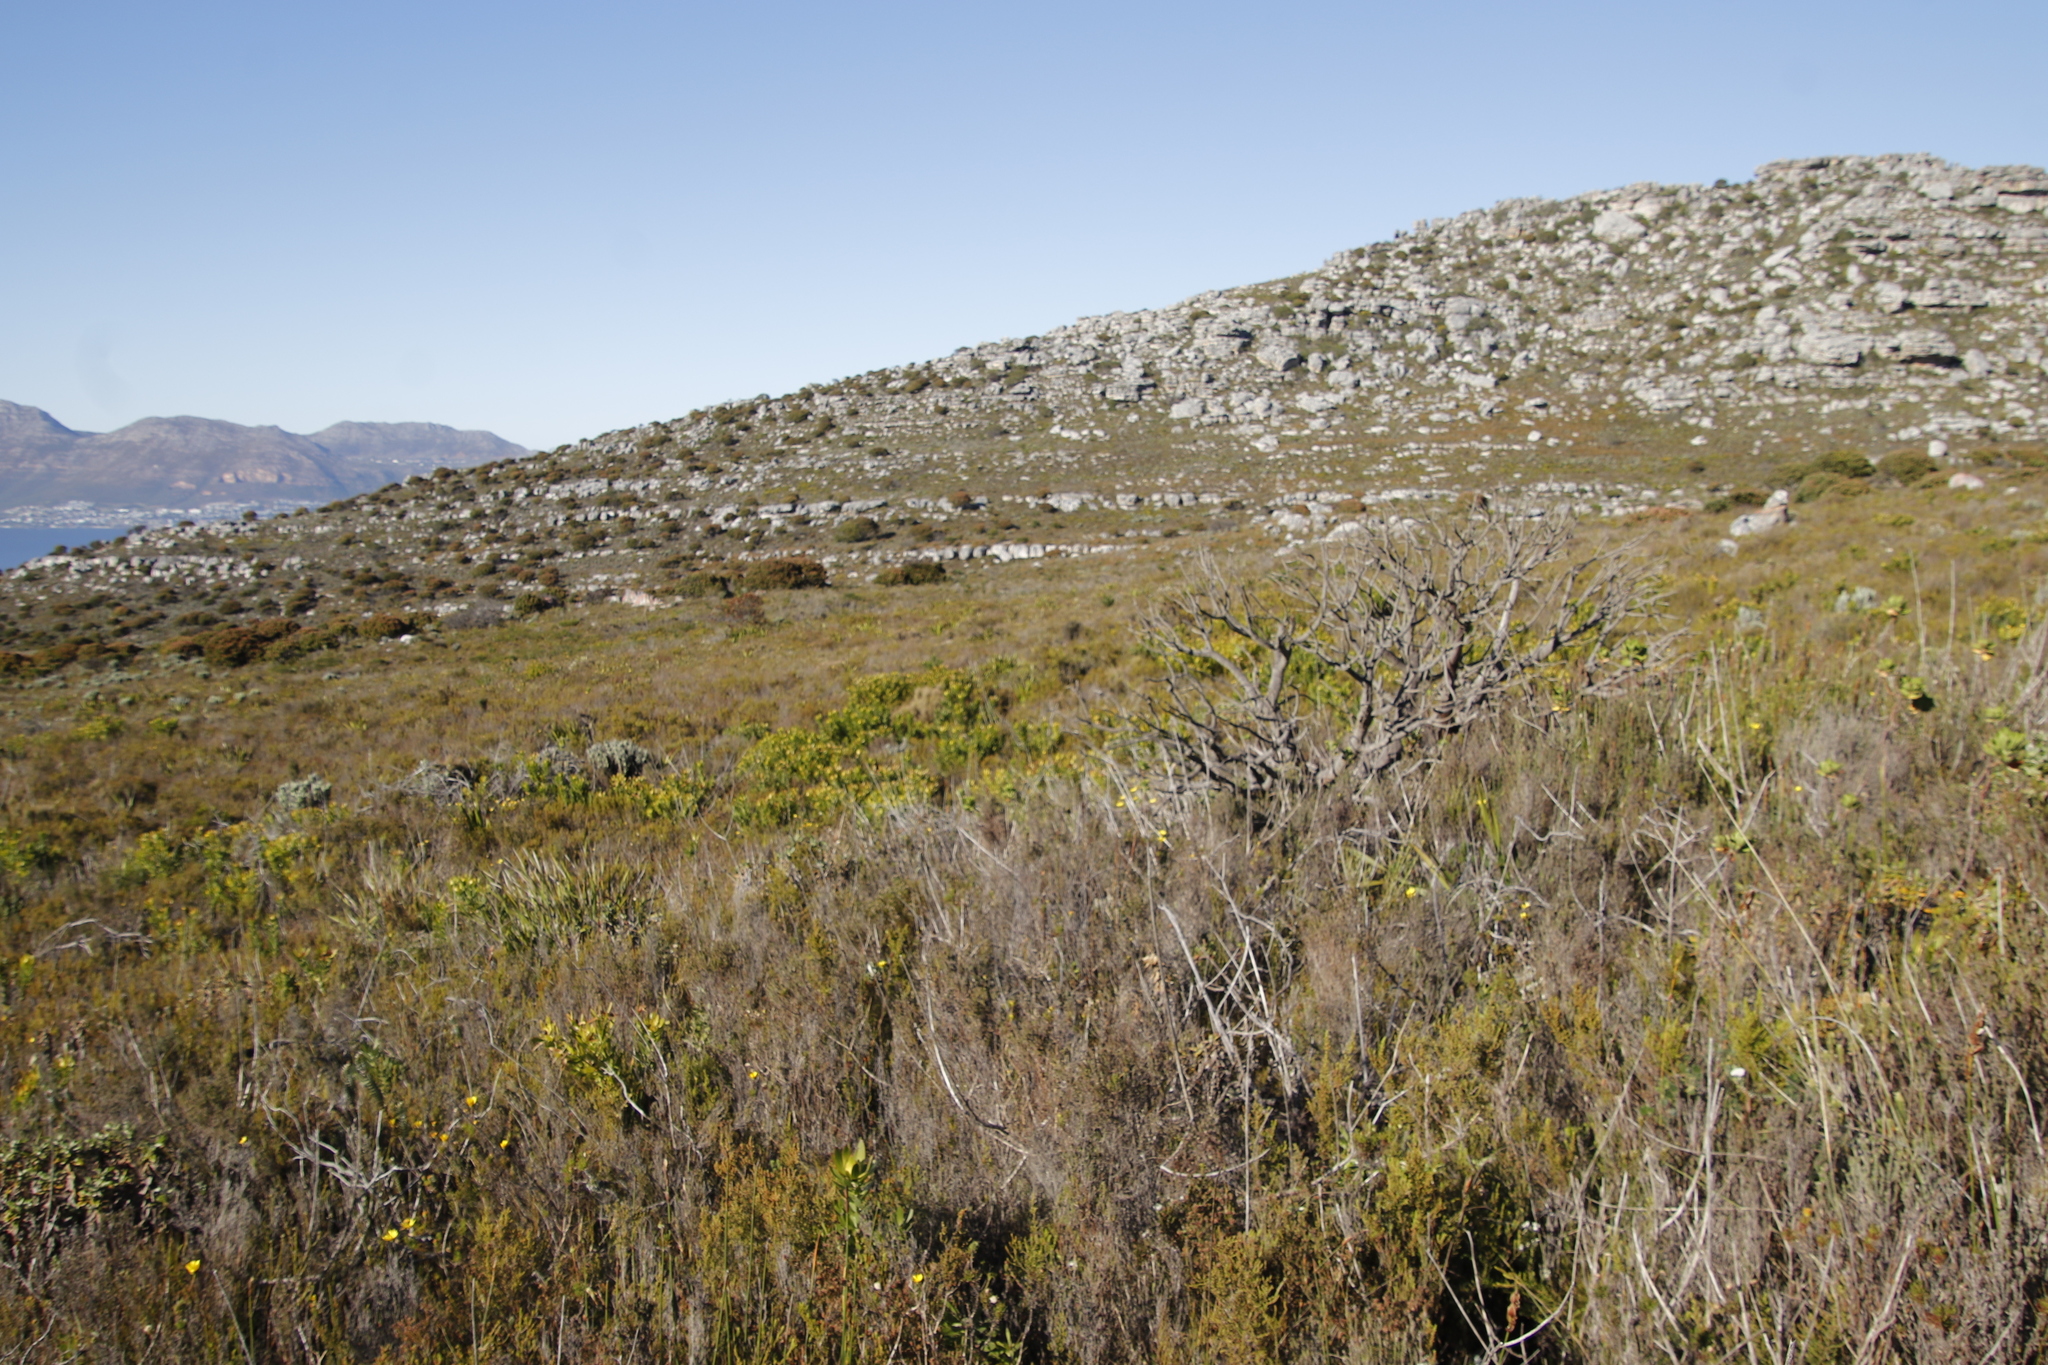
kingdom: Plantae
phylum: Tracheophyta
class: Magnoliopsida
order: Proteales
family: Proteaceae
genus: Mimetes
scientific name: Mimetes fimbriifolius
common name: Fringed bottlebrush
